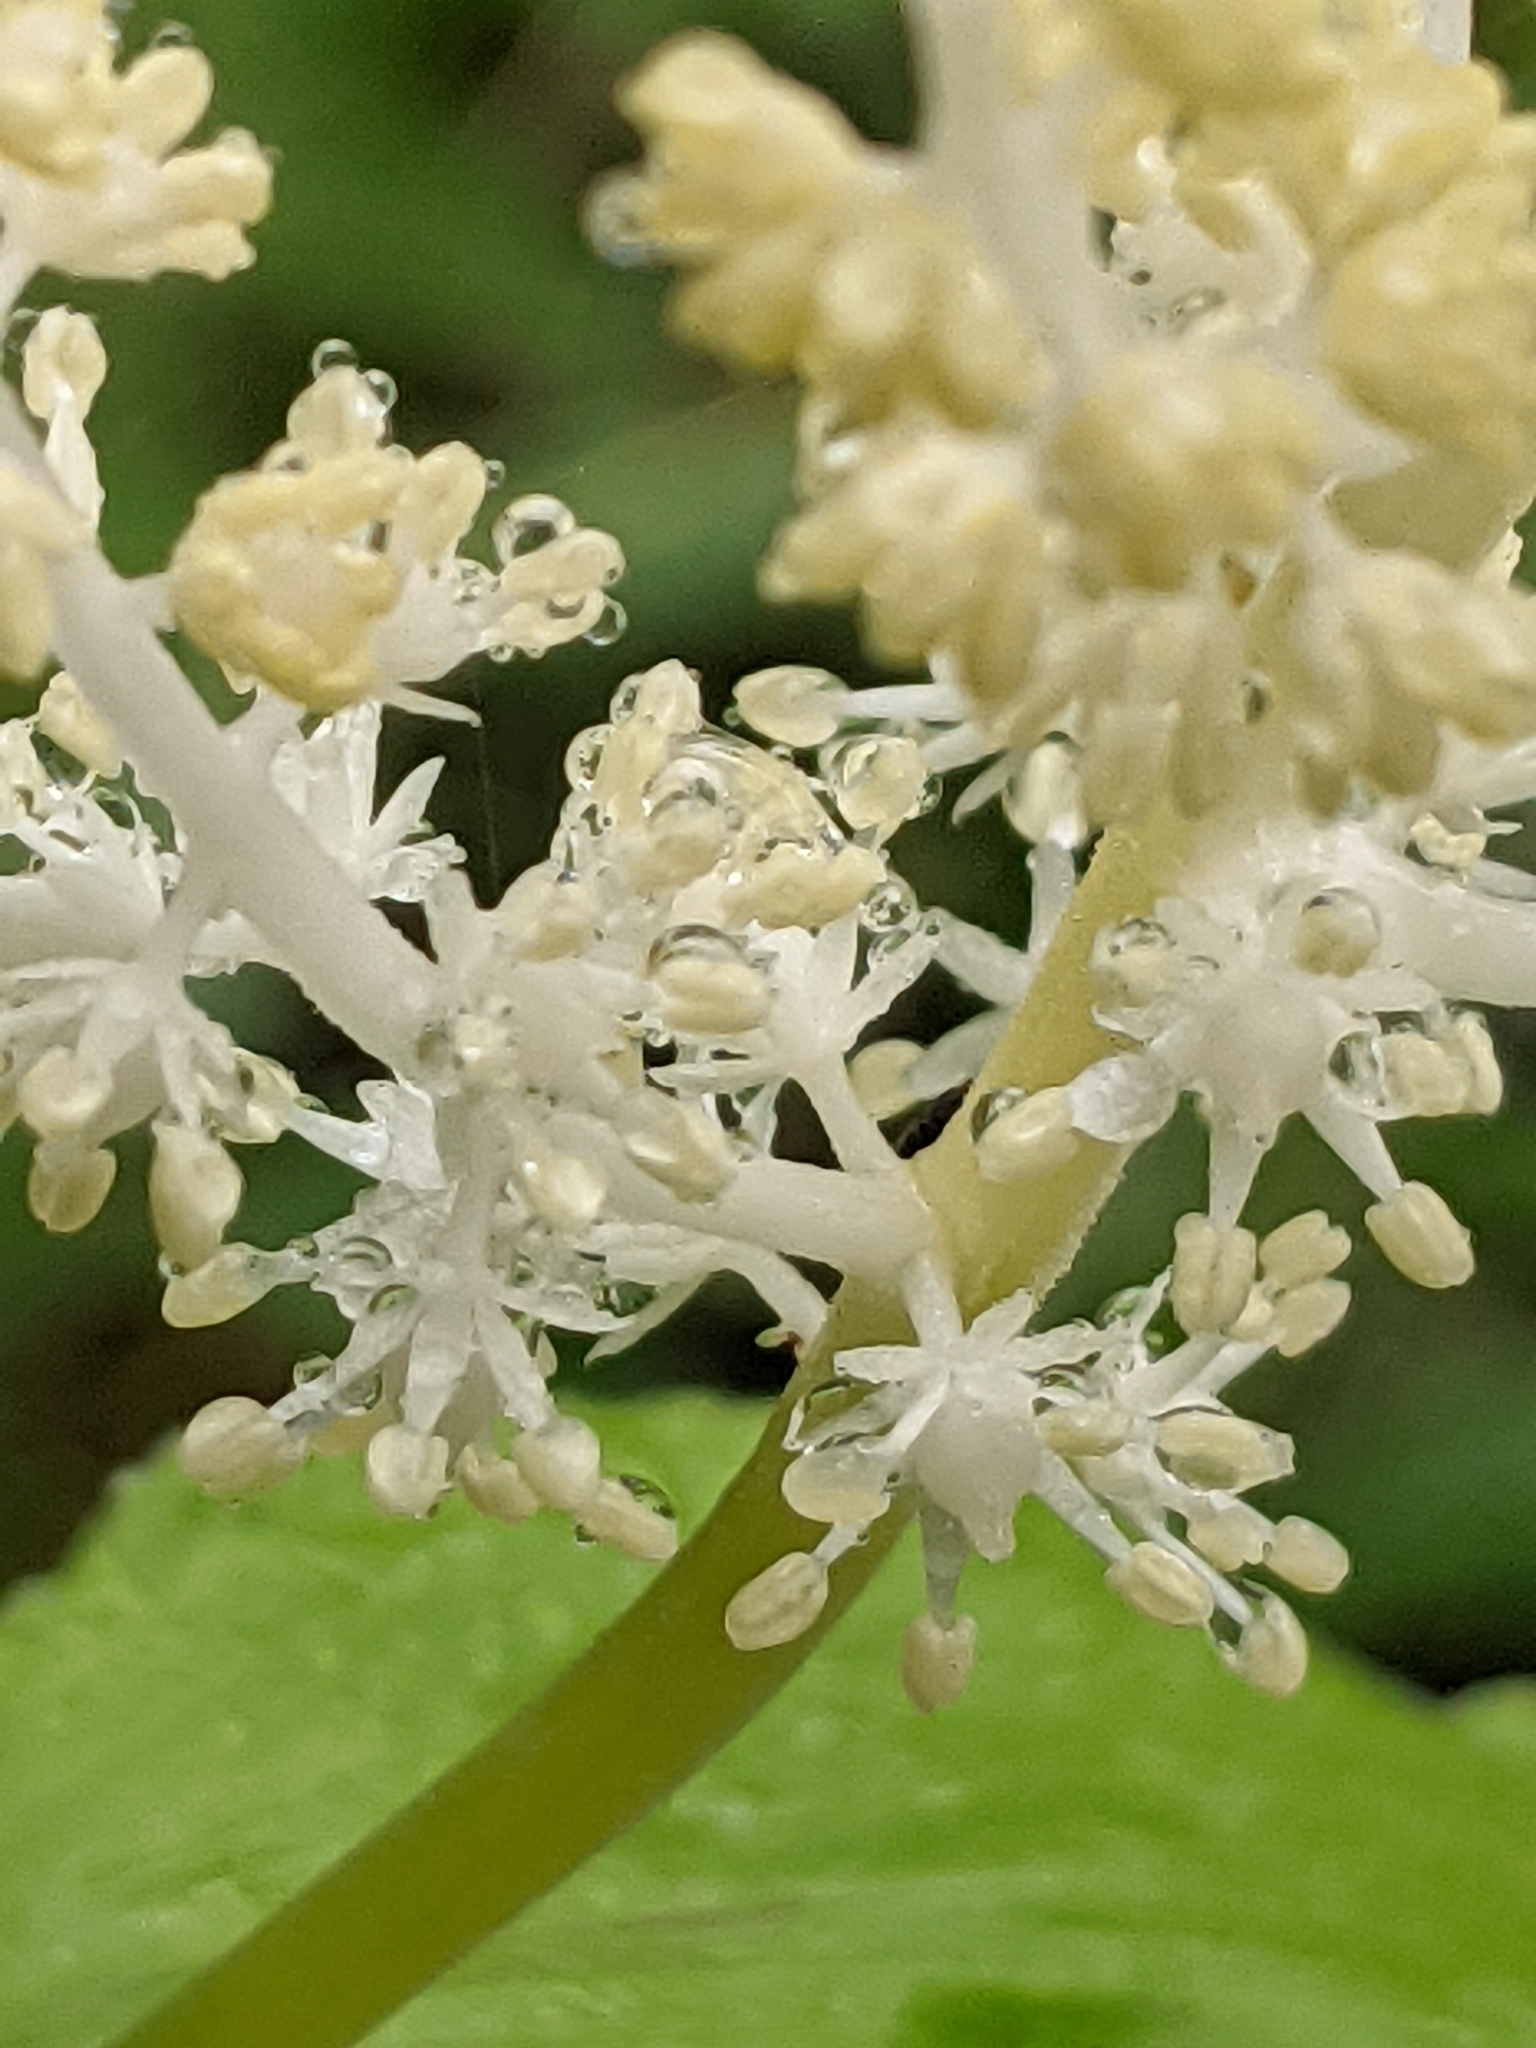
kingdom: Plantae
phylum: Tracheophyta
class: Liliopsida
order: Asparagales
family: Asparagaceae
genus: Maianthemum
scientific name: Maianthemum racemosum
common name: False spikenard
